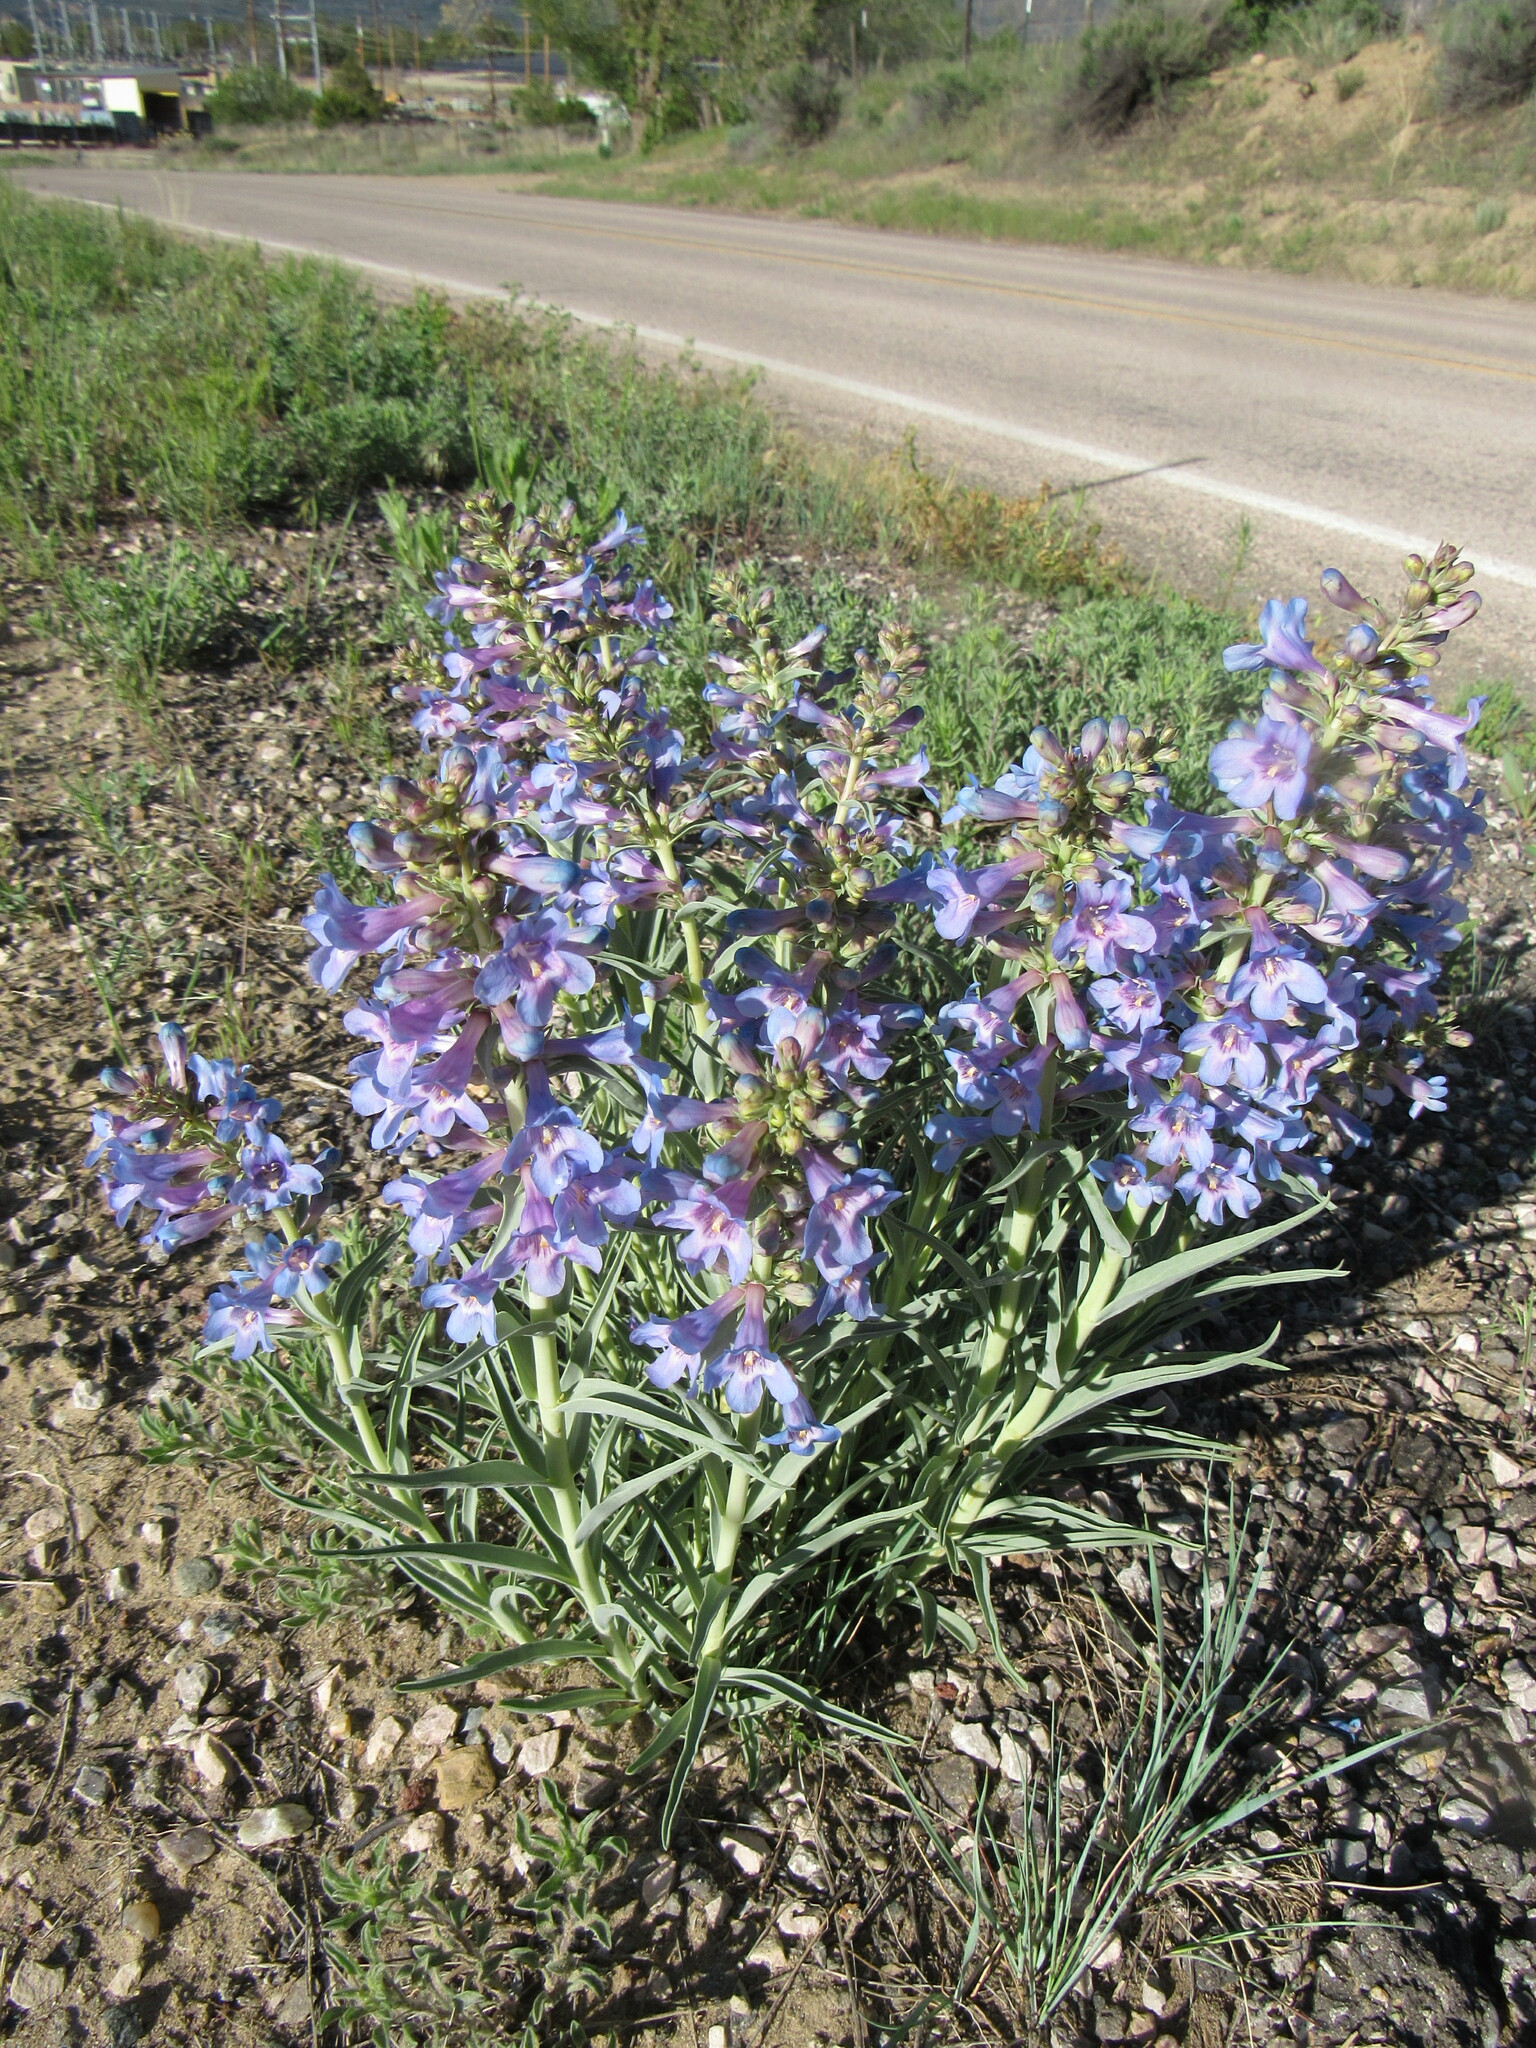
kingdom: Plantae
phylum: Tracheophyta
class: Magnoliopsida
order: Lamiales
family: Plantaginaceae
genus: Penstemon
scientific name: Penstemon angustifolius
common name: Narrow beardtongue
